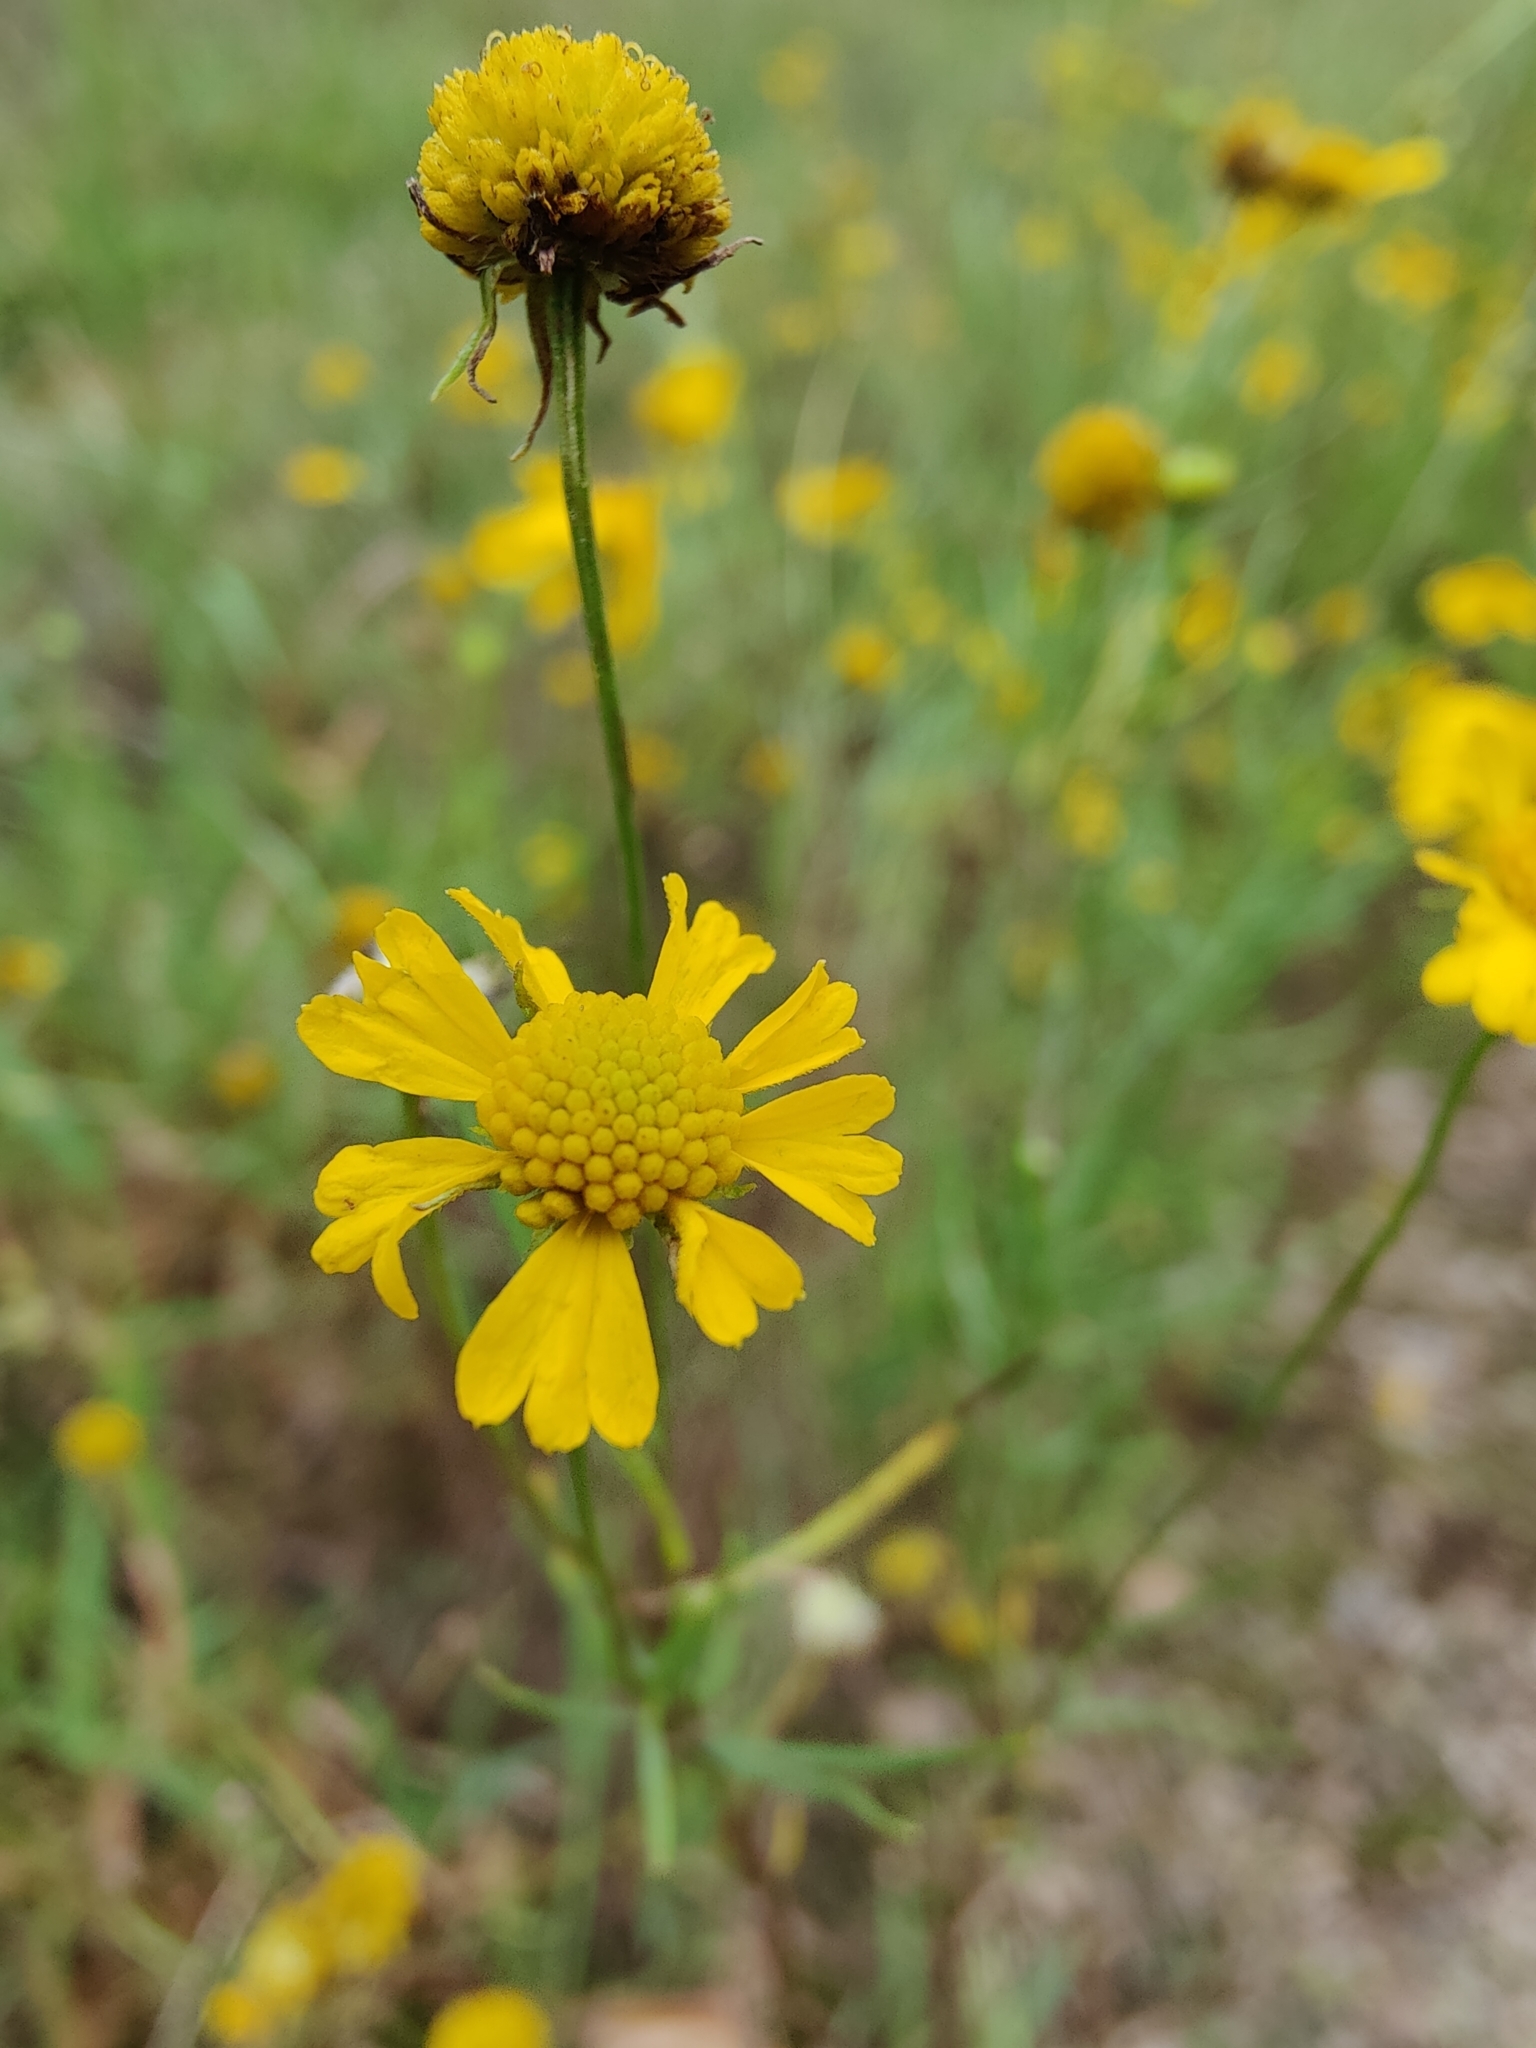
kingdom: Plantae
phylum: Tracheophyta
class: Magnoliopsida
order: Asterales
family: Asteraceae
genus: Helenium
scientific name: Helenium amarum
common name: Bitter sneezeweed
